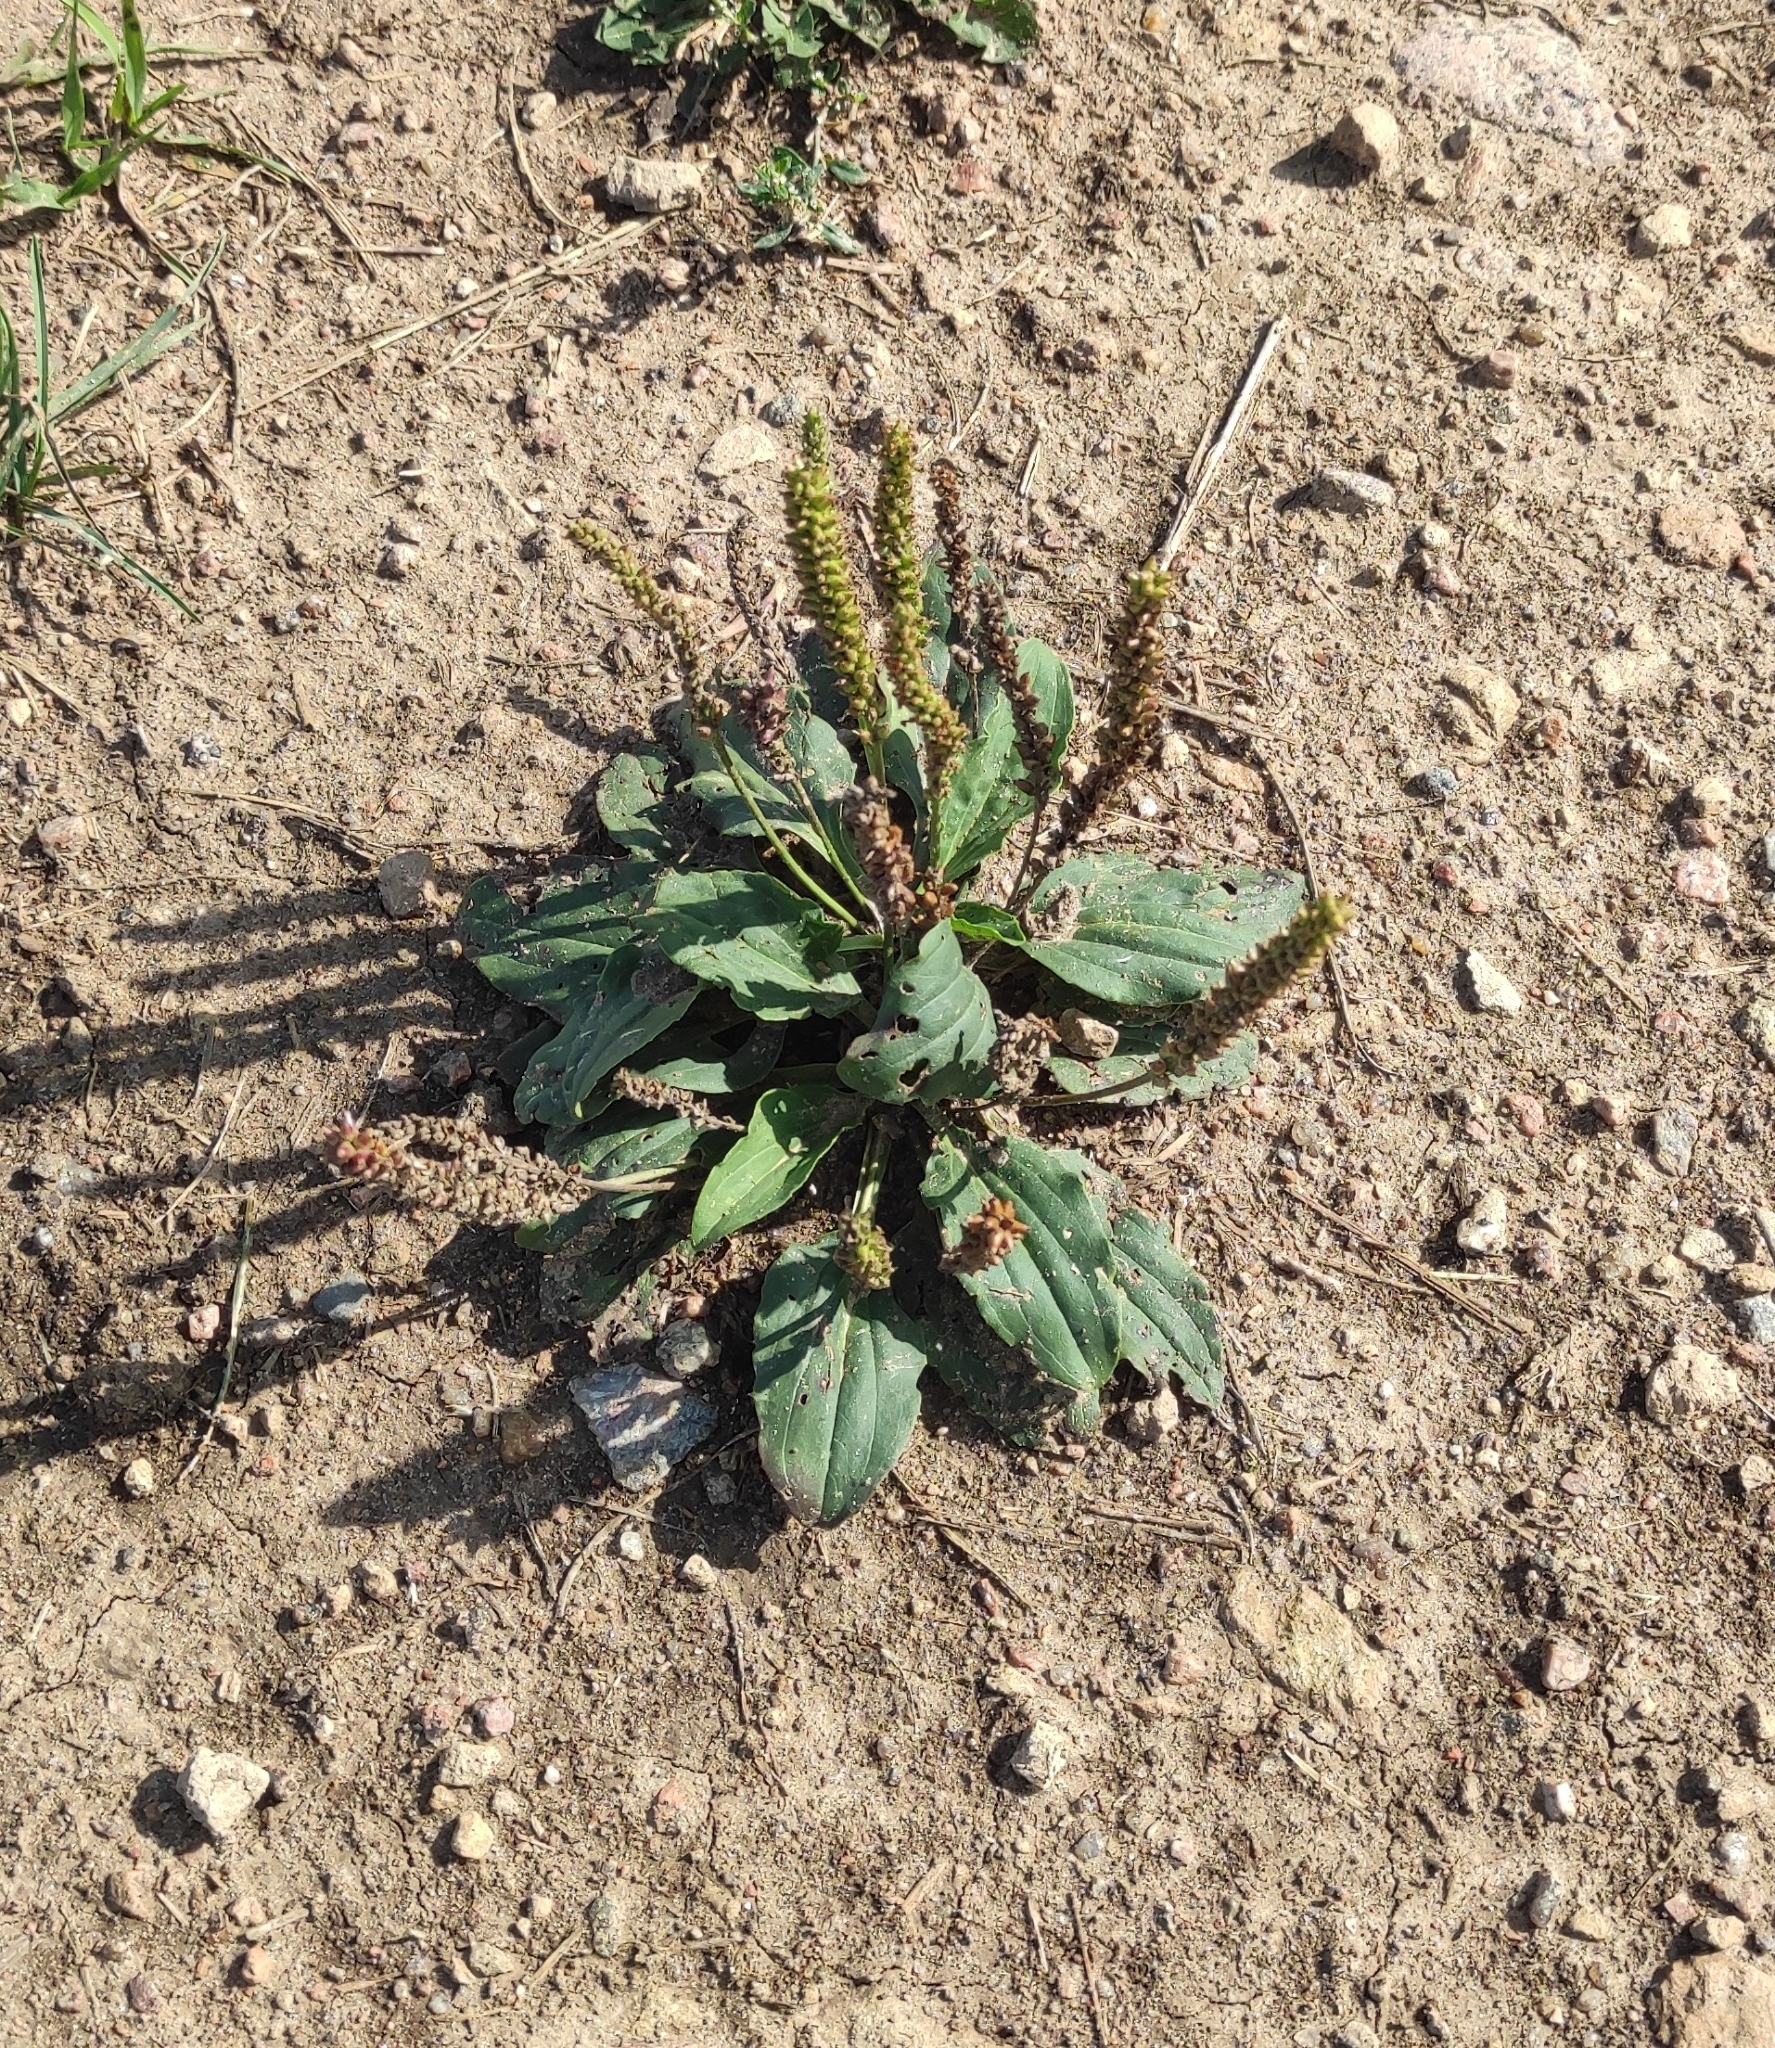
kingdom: Plantae
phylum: Tracheophyta
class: Magnoliopsida
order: Lamiales
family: Plantaginaceae
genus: Plantago
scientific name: Plantago major
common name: Common plantain
